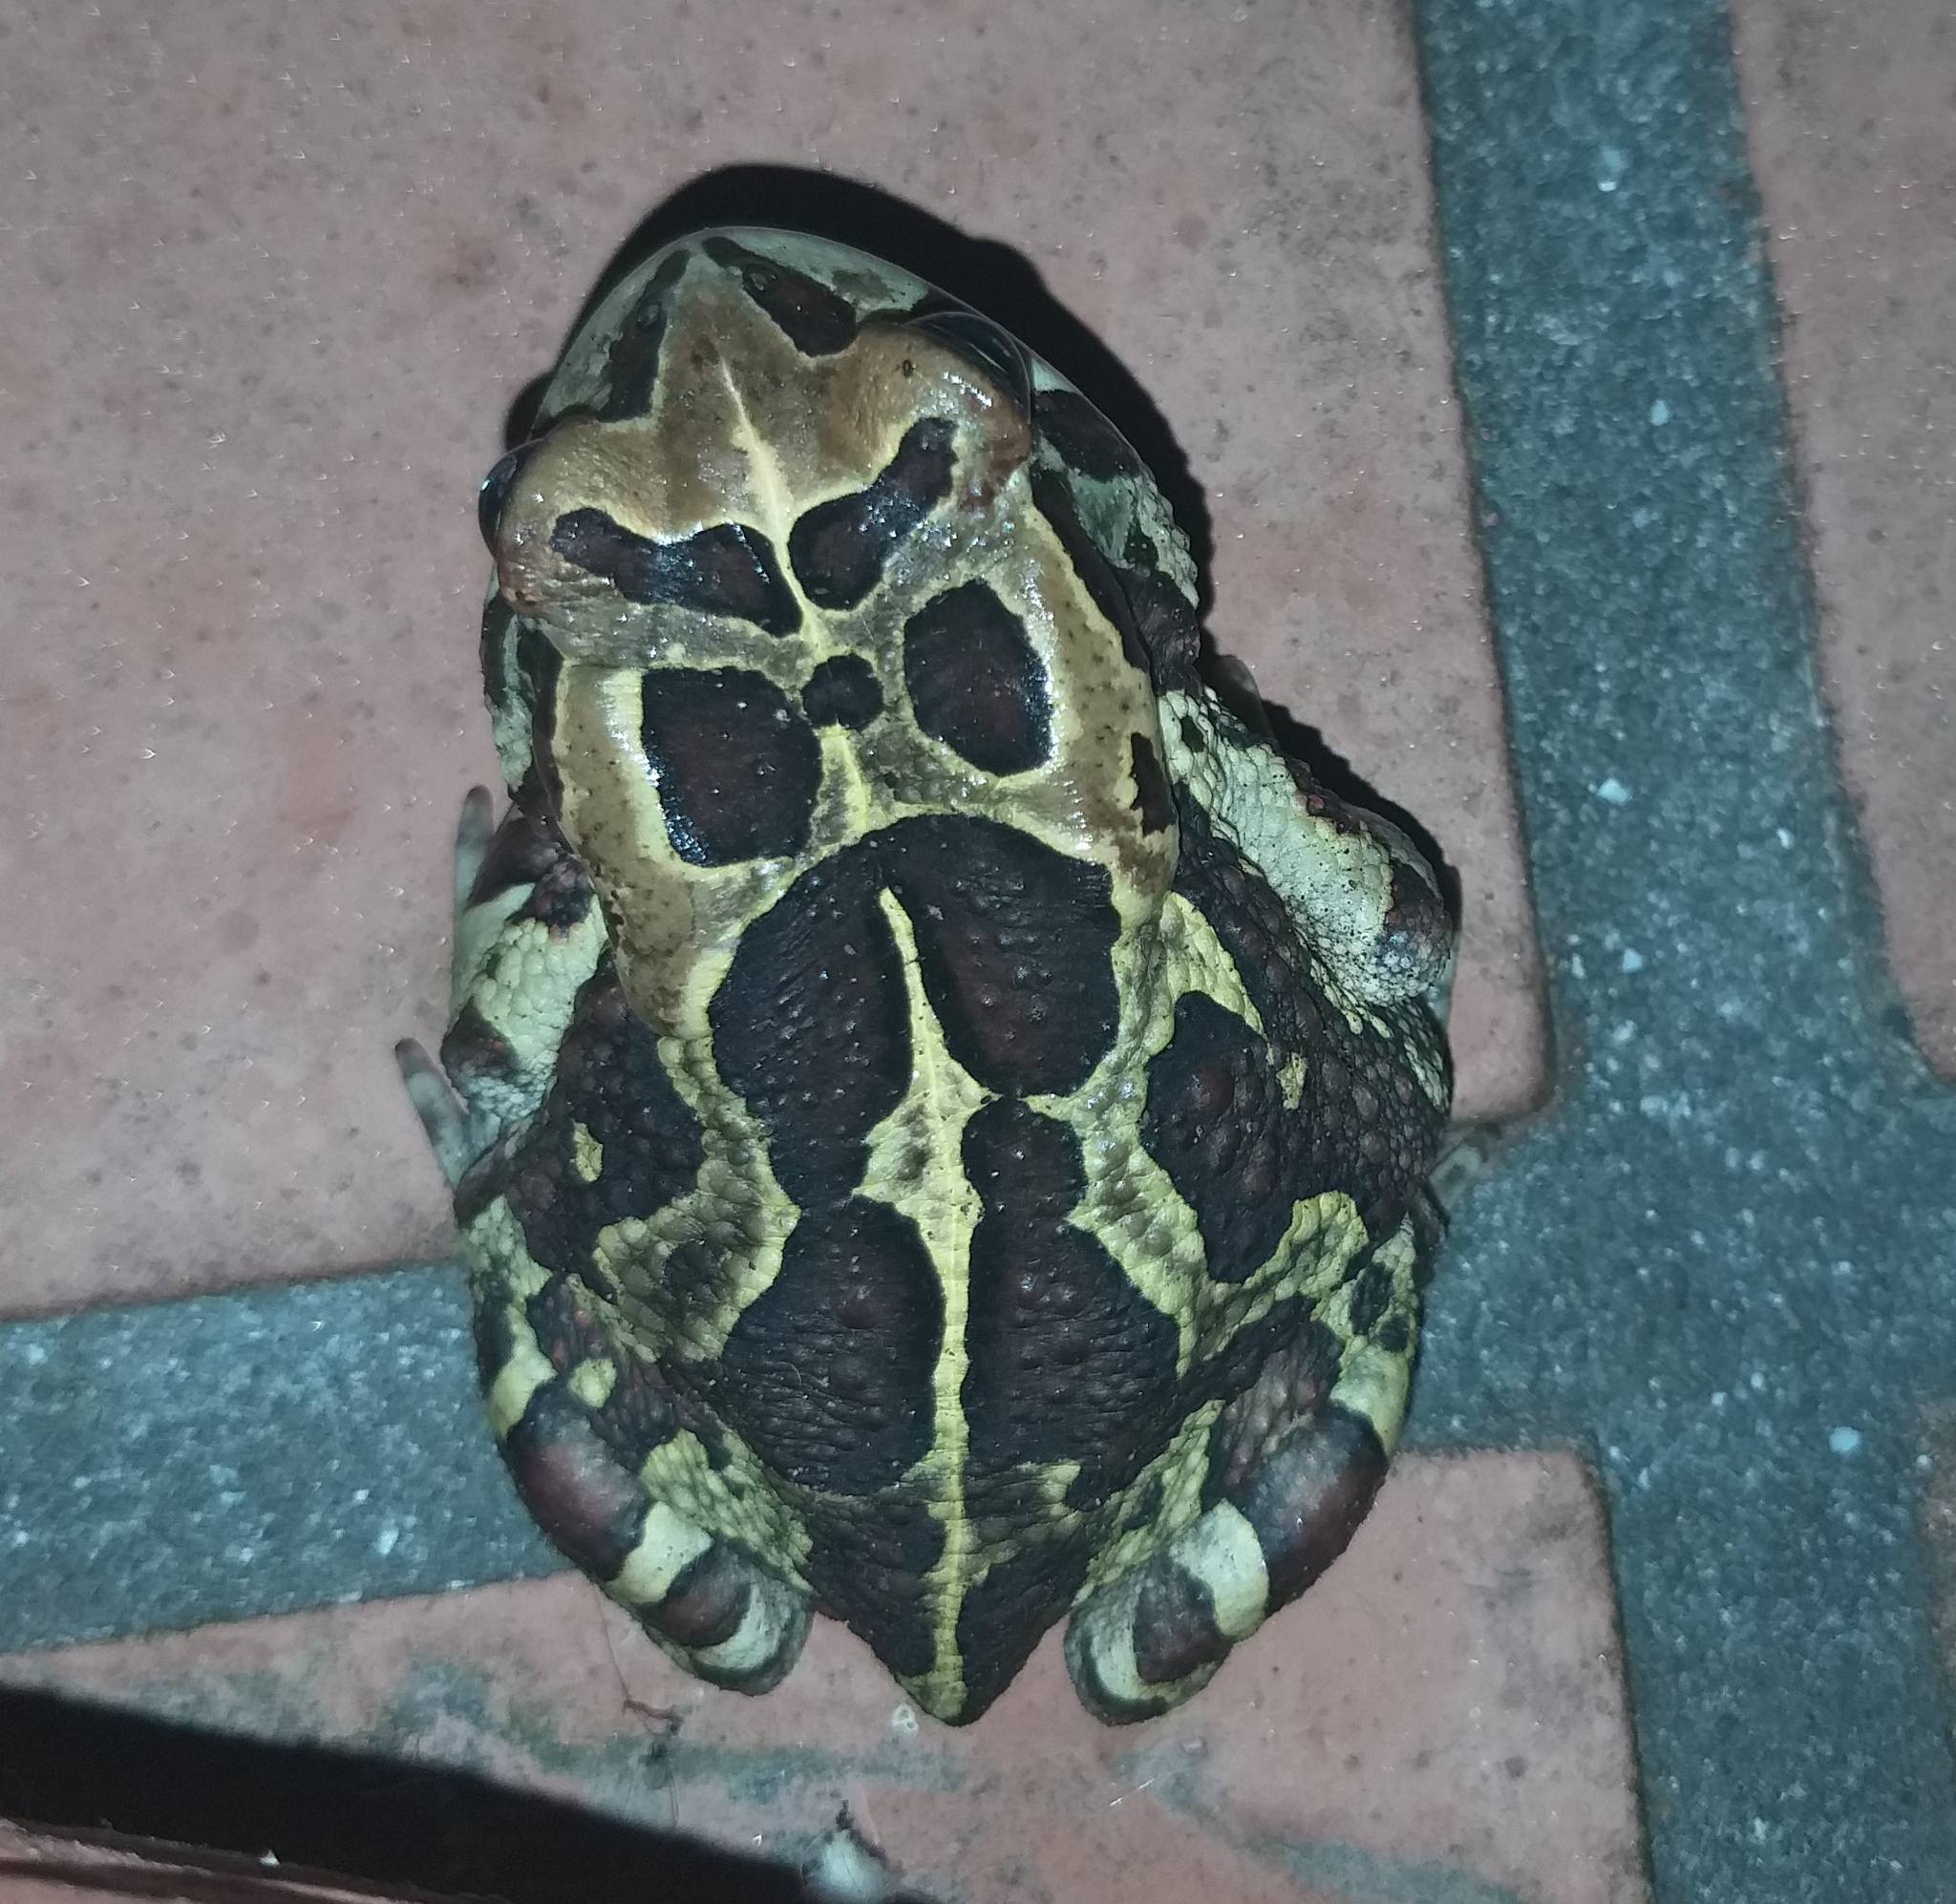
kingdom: Animalia
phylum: Chordata
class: Amphibia
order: Anura
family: Bufonidae
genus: Sclerophrys
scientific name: Sclerophrys pantherina
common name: Panther toad
